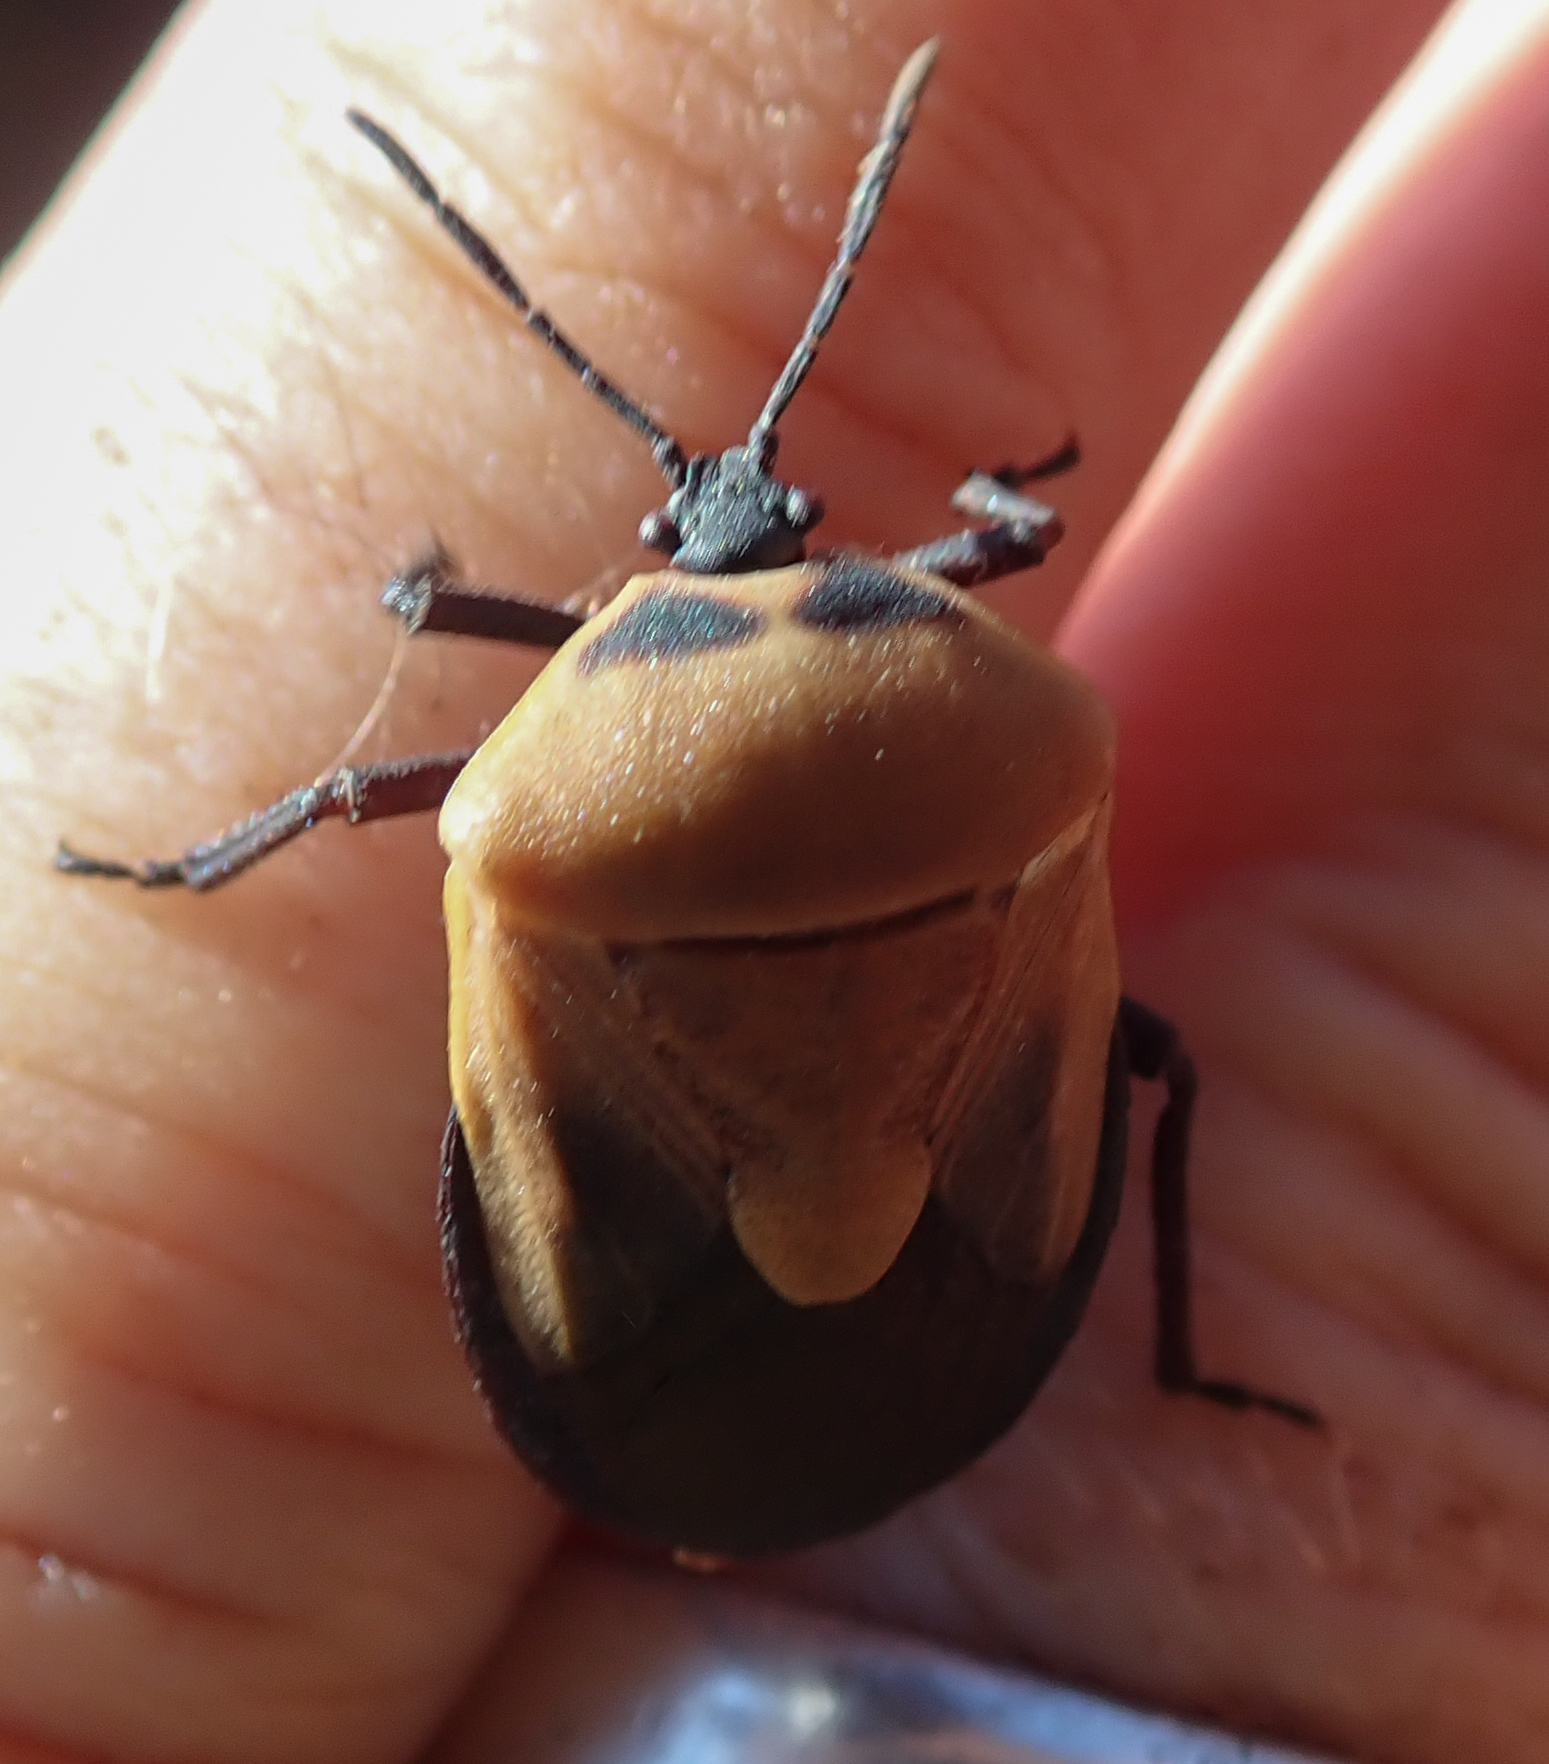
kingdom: Animalia
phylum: Arthropoda
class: Insecta
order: Hemiptera
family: Dinidoridae
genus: Coridius
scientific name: Coridius viduatus
